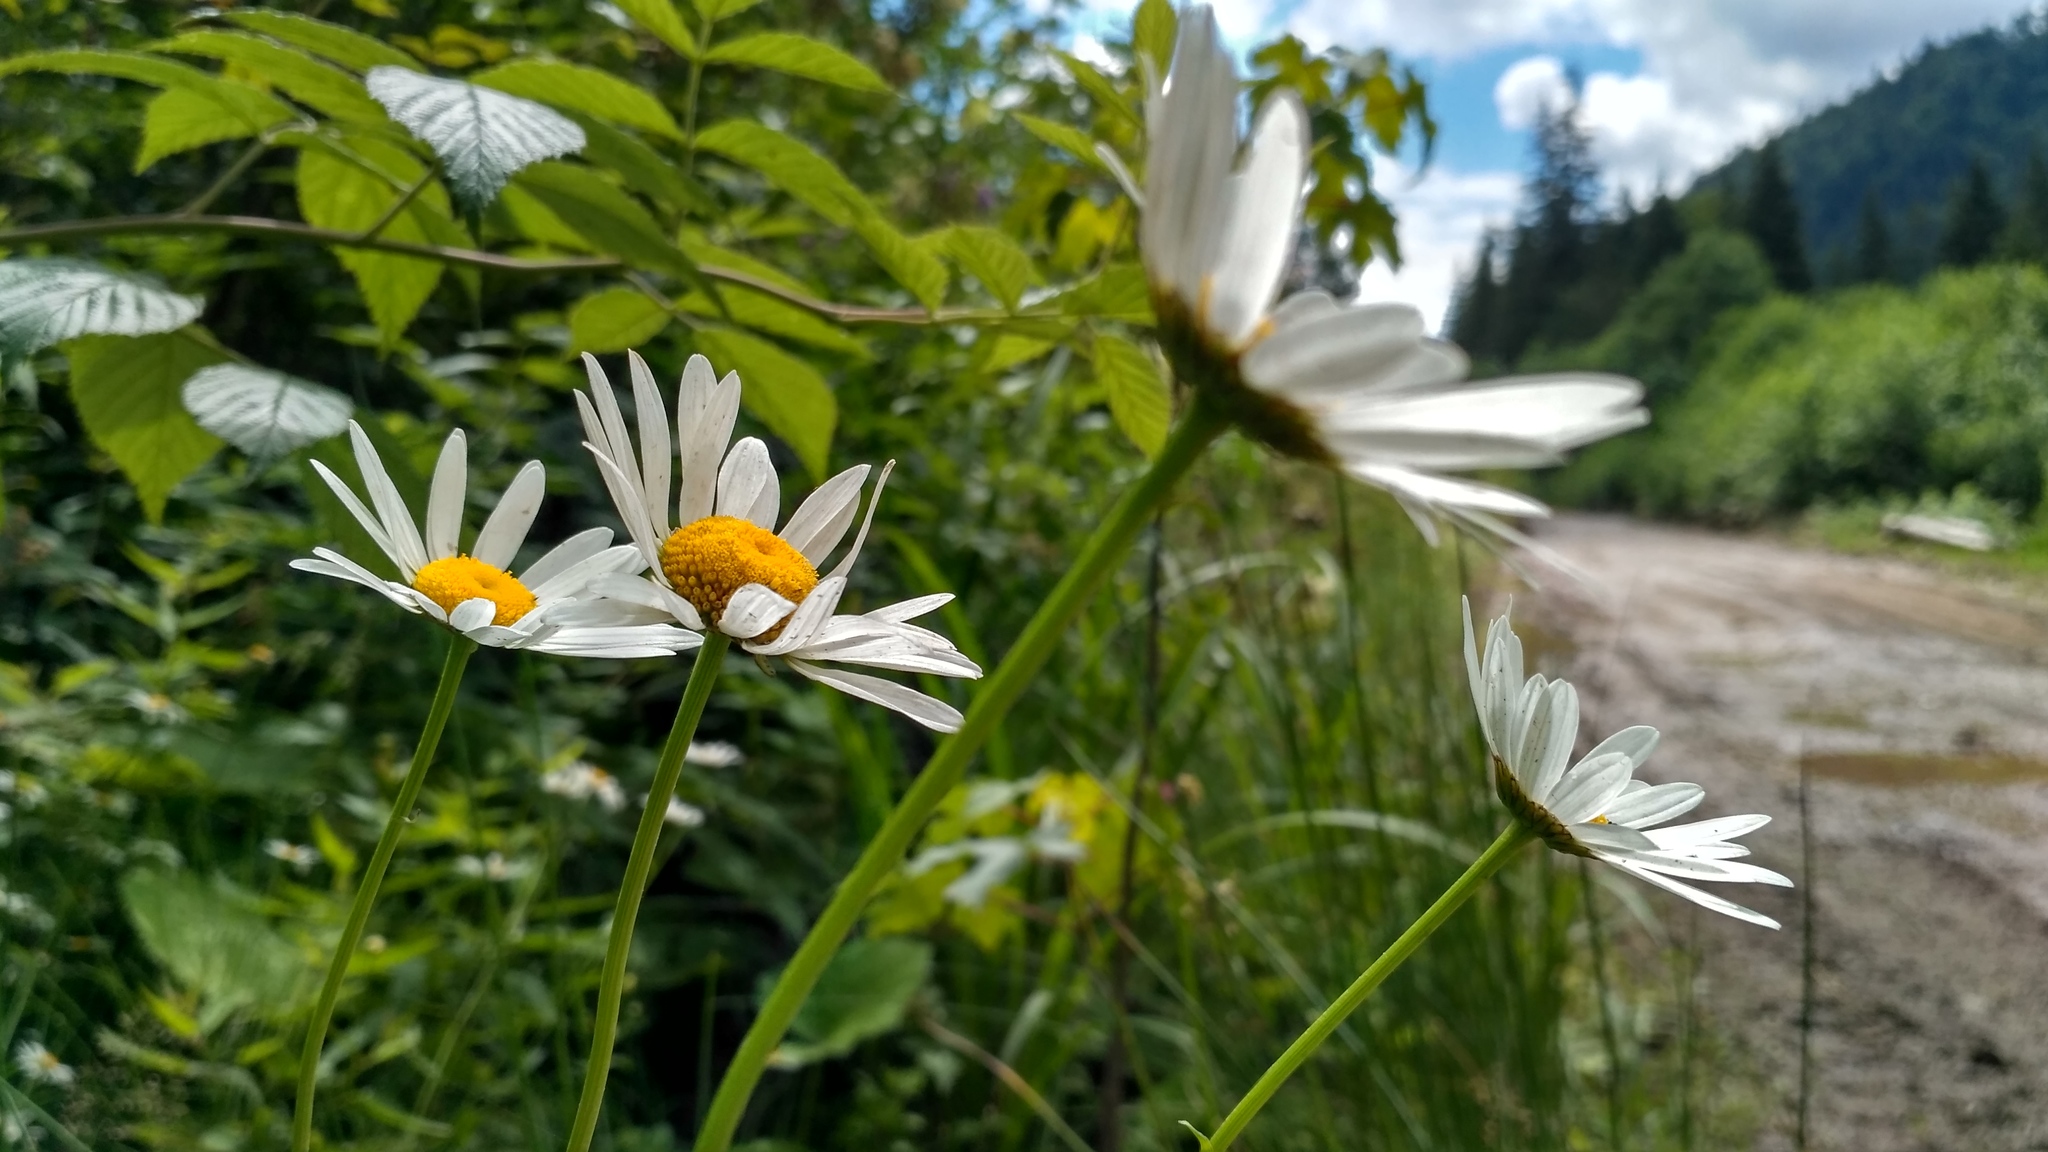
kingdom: Plantae
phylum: Tracheophyta
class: Magnoliopsida
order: Asterales
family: Asteraceae
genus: Leucanthemum
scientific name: Leucanthemum vulgare
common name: Oxeye daisy
